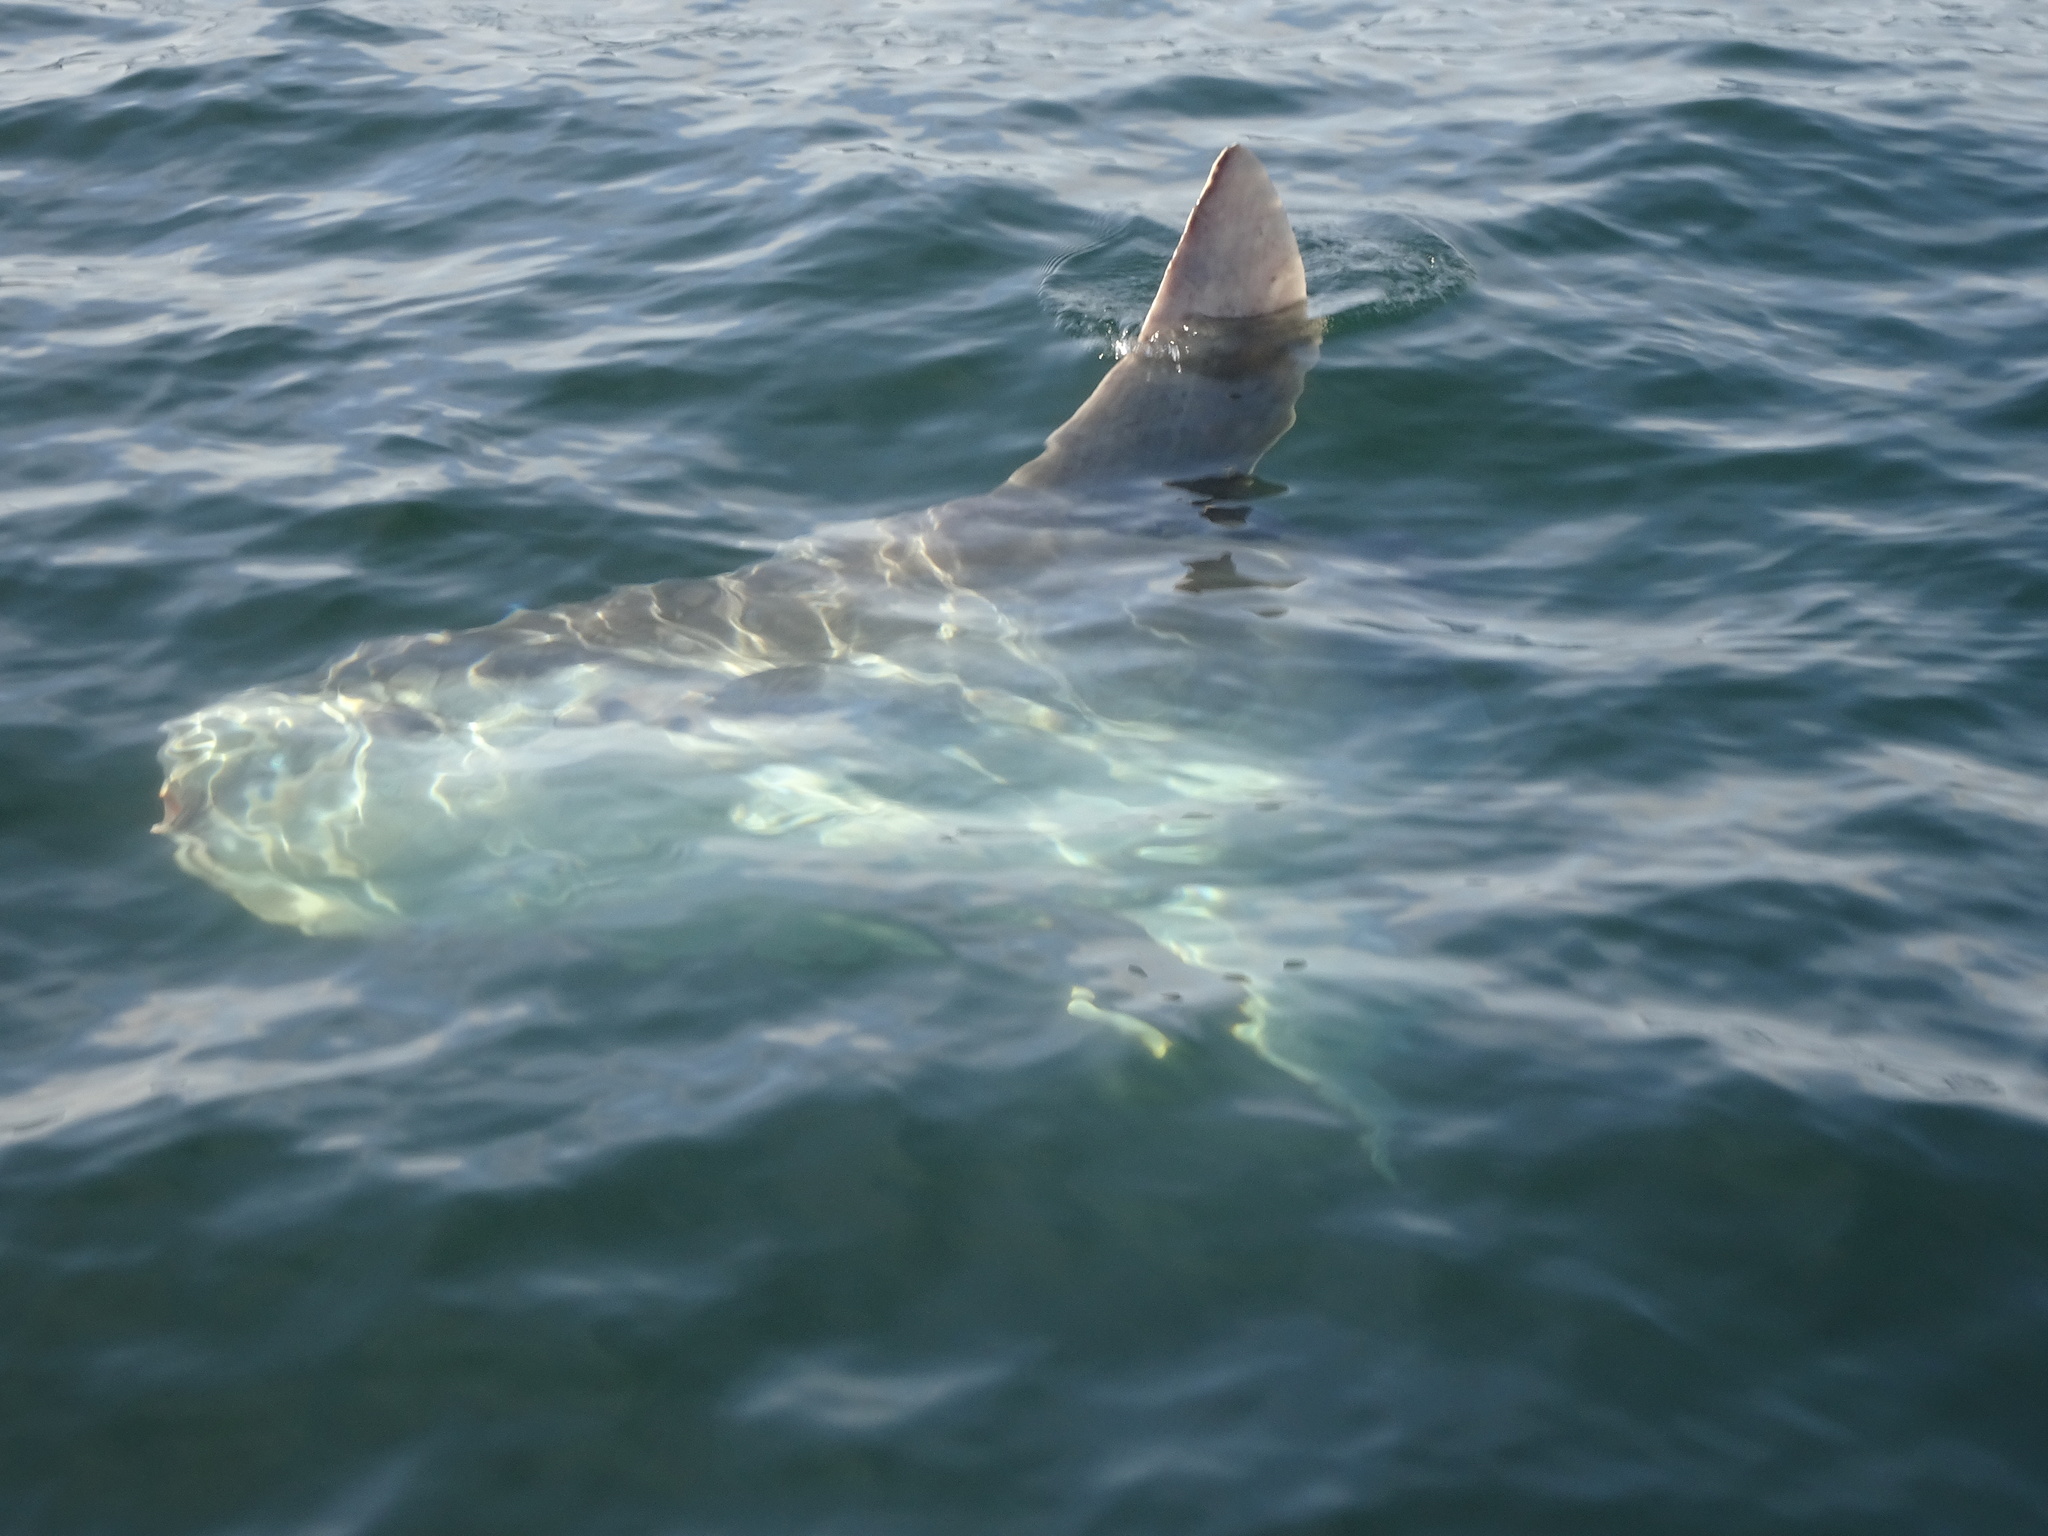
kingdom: Animalia
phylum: Chordata
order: Tetraodontiformes
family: Molidae
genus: Mola
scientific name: Mola mola
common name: Ocean sunfish
